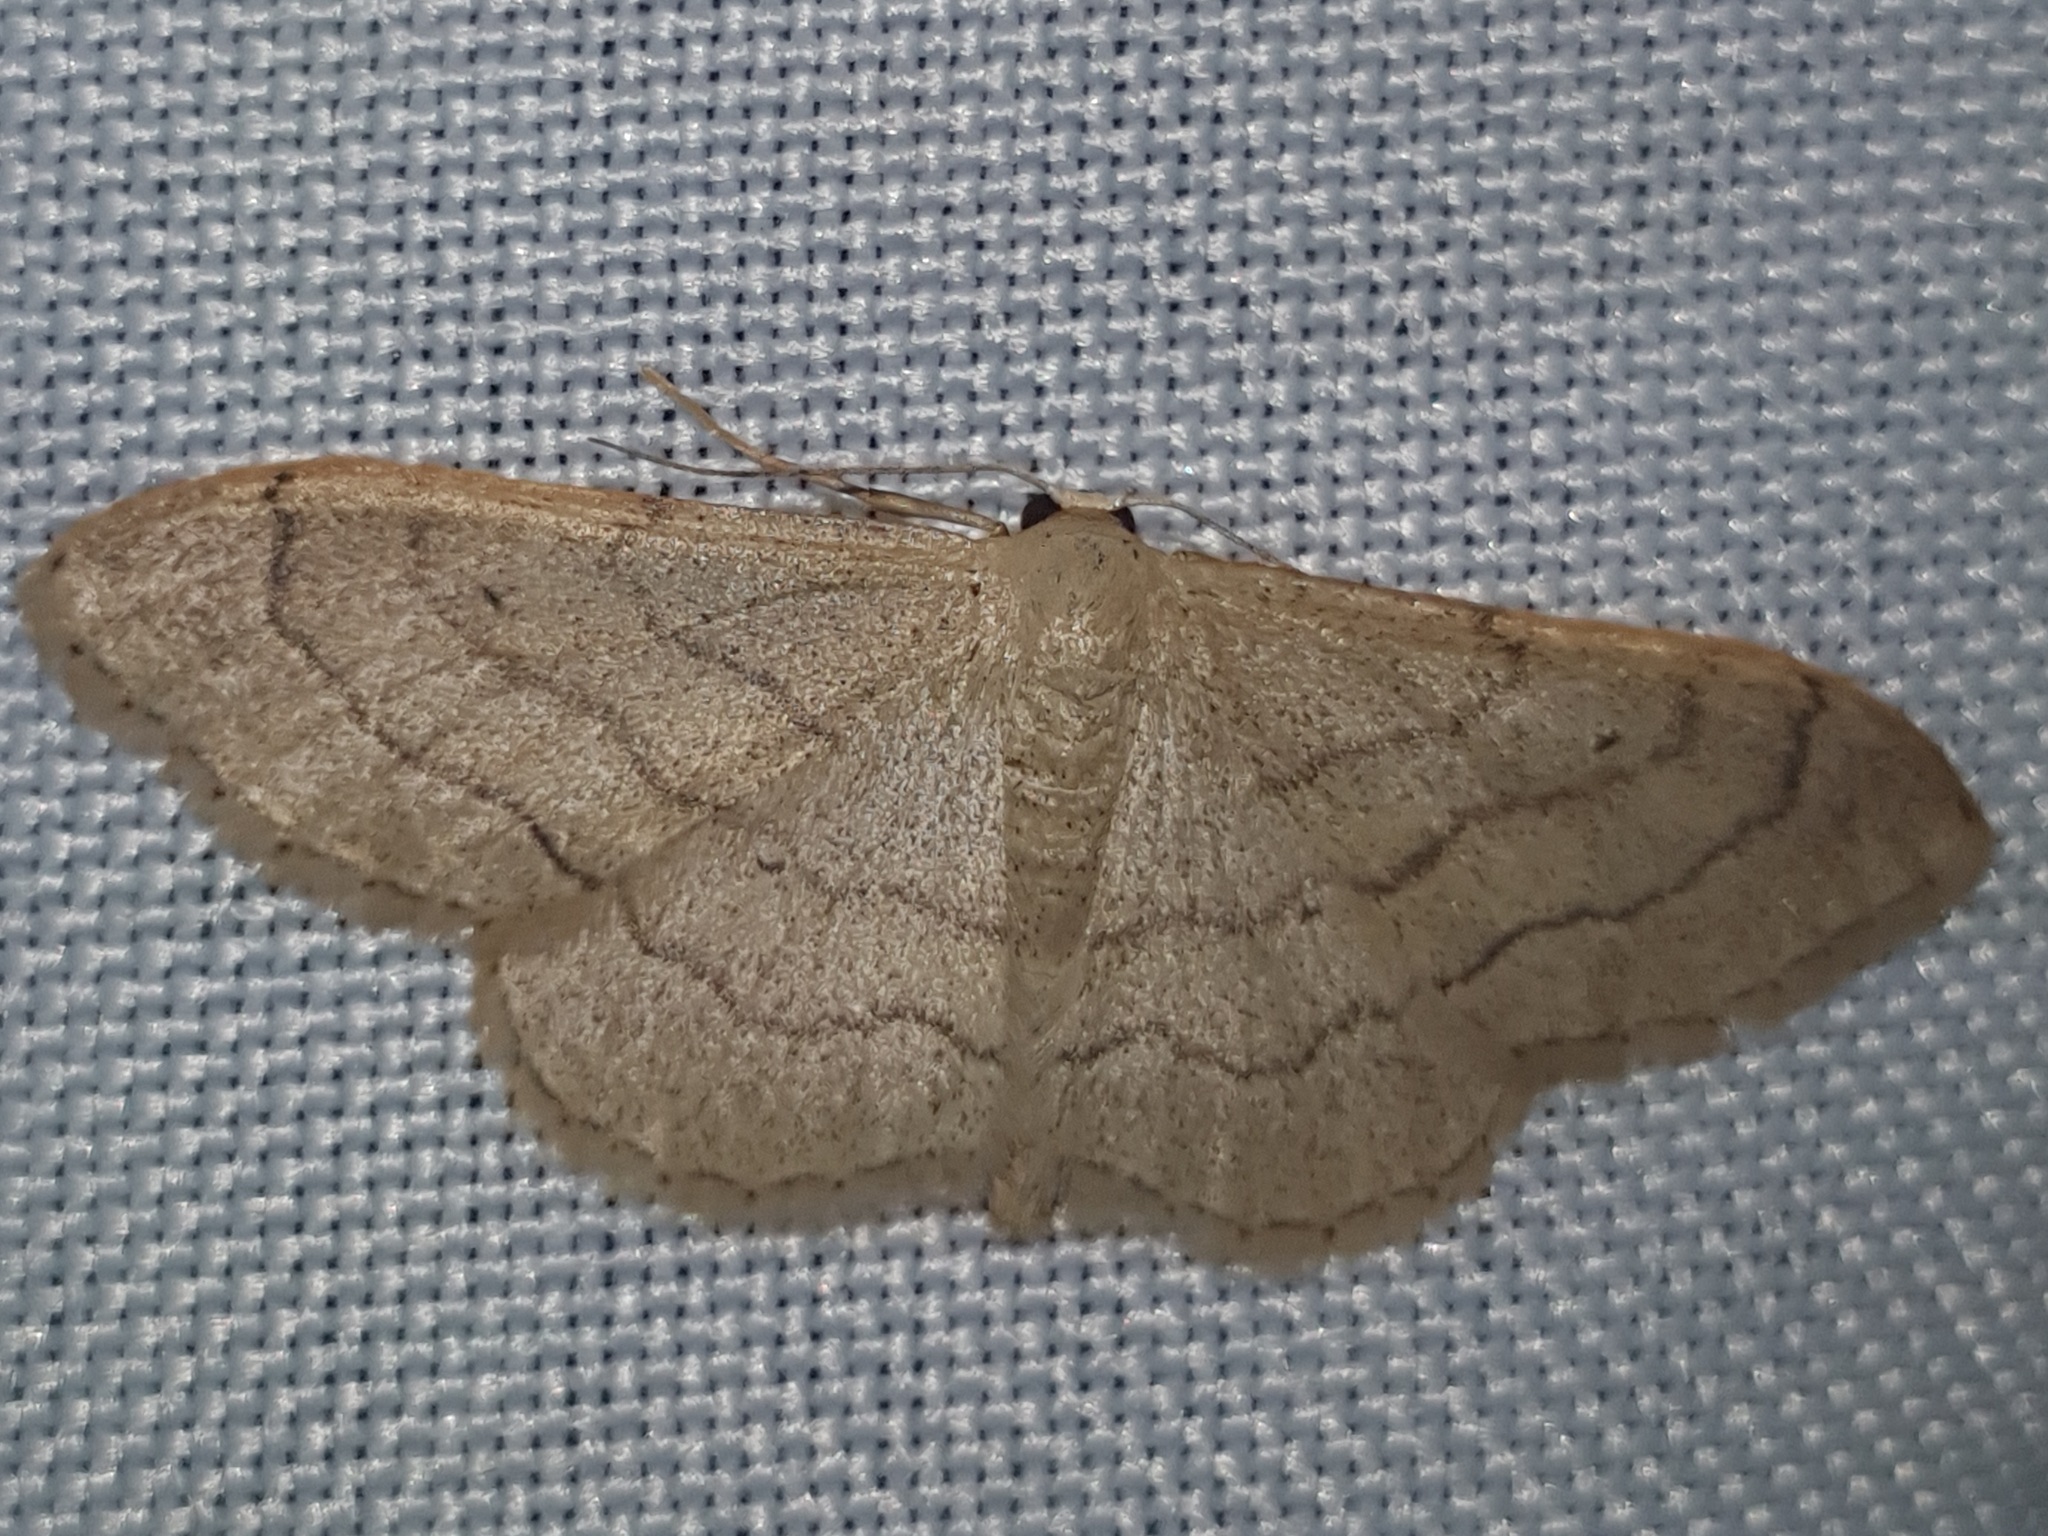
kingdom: Animalia
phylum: Arthropoda
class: Insecta
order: Lepidoptera
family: Geometridae
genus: Idaea
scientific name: Idaea aversata
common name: Riband wave
